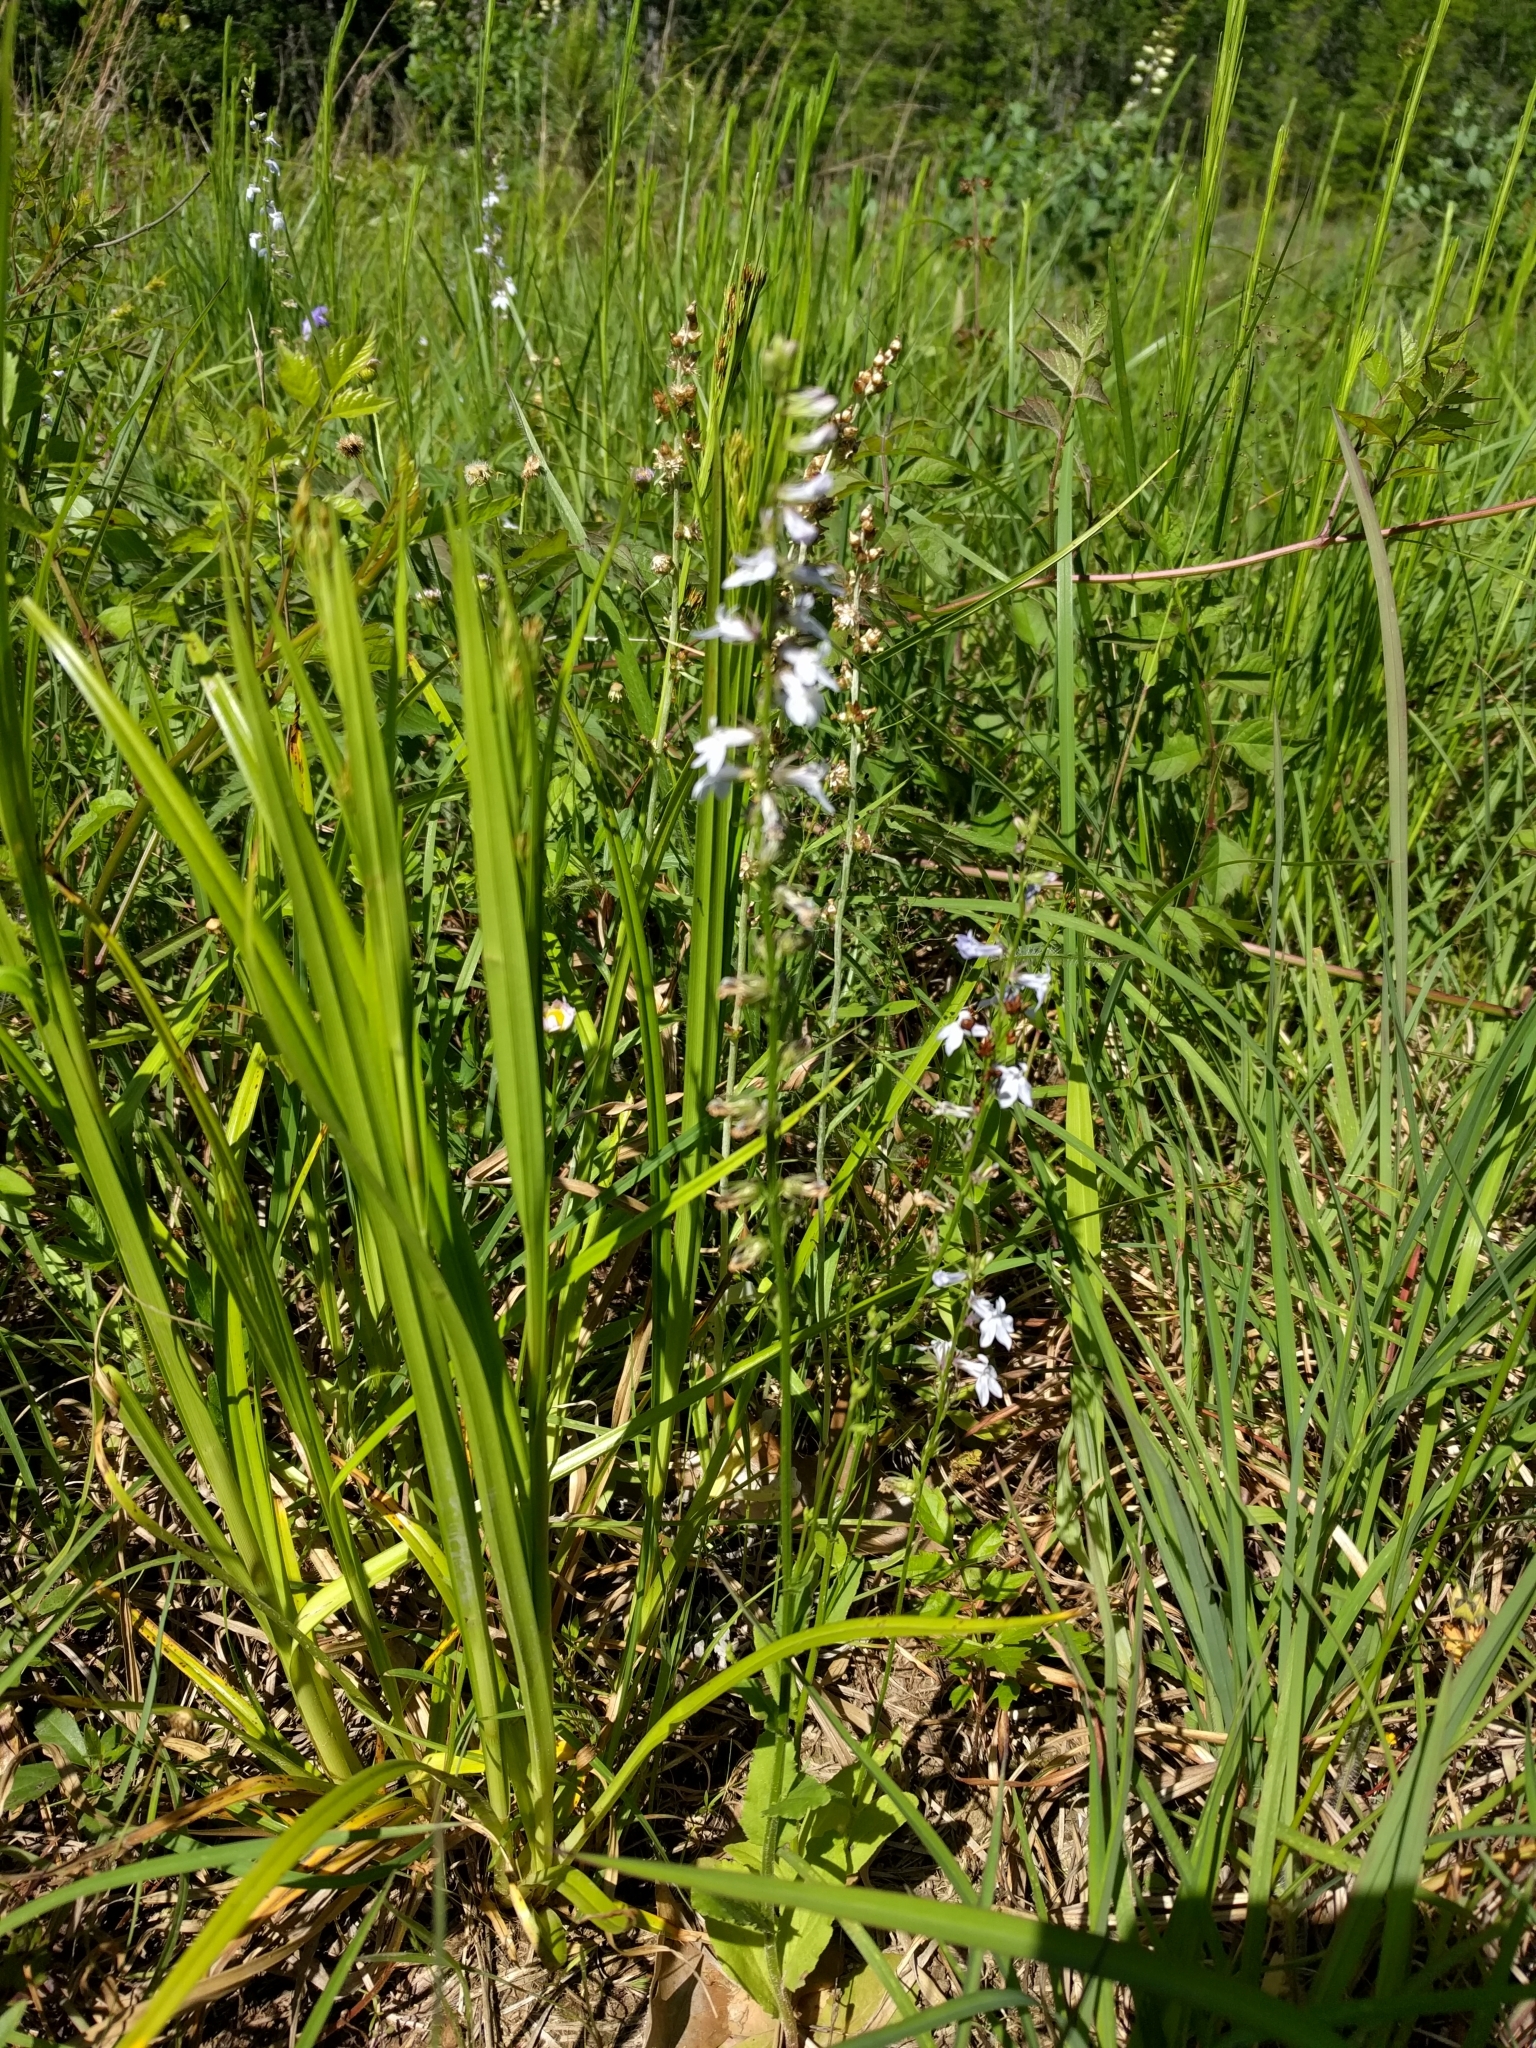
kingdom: Plantae
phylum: Tracheophyta
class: Magnoliopsida
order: Asterales
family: Campanulaceae
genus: Lobelia
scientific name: Lobelia spicata
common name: Pale-spike lobelia
